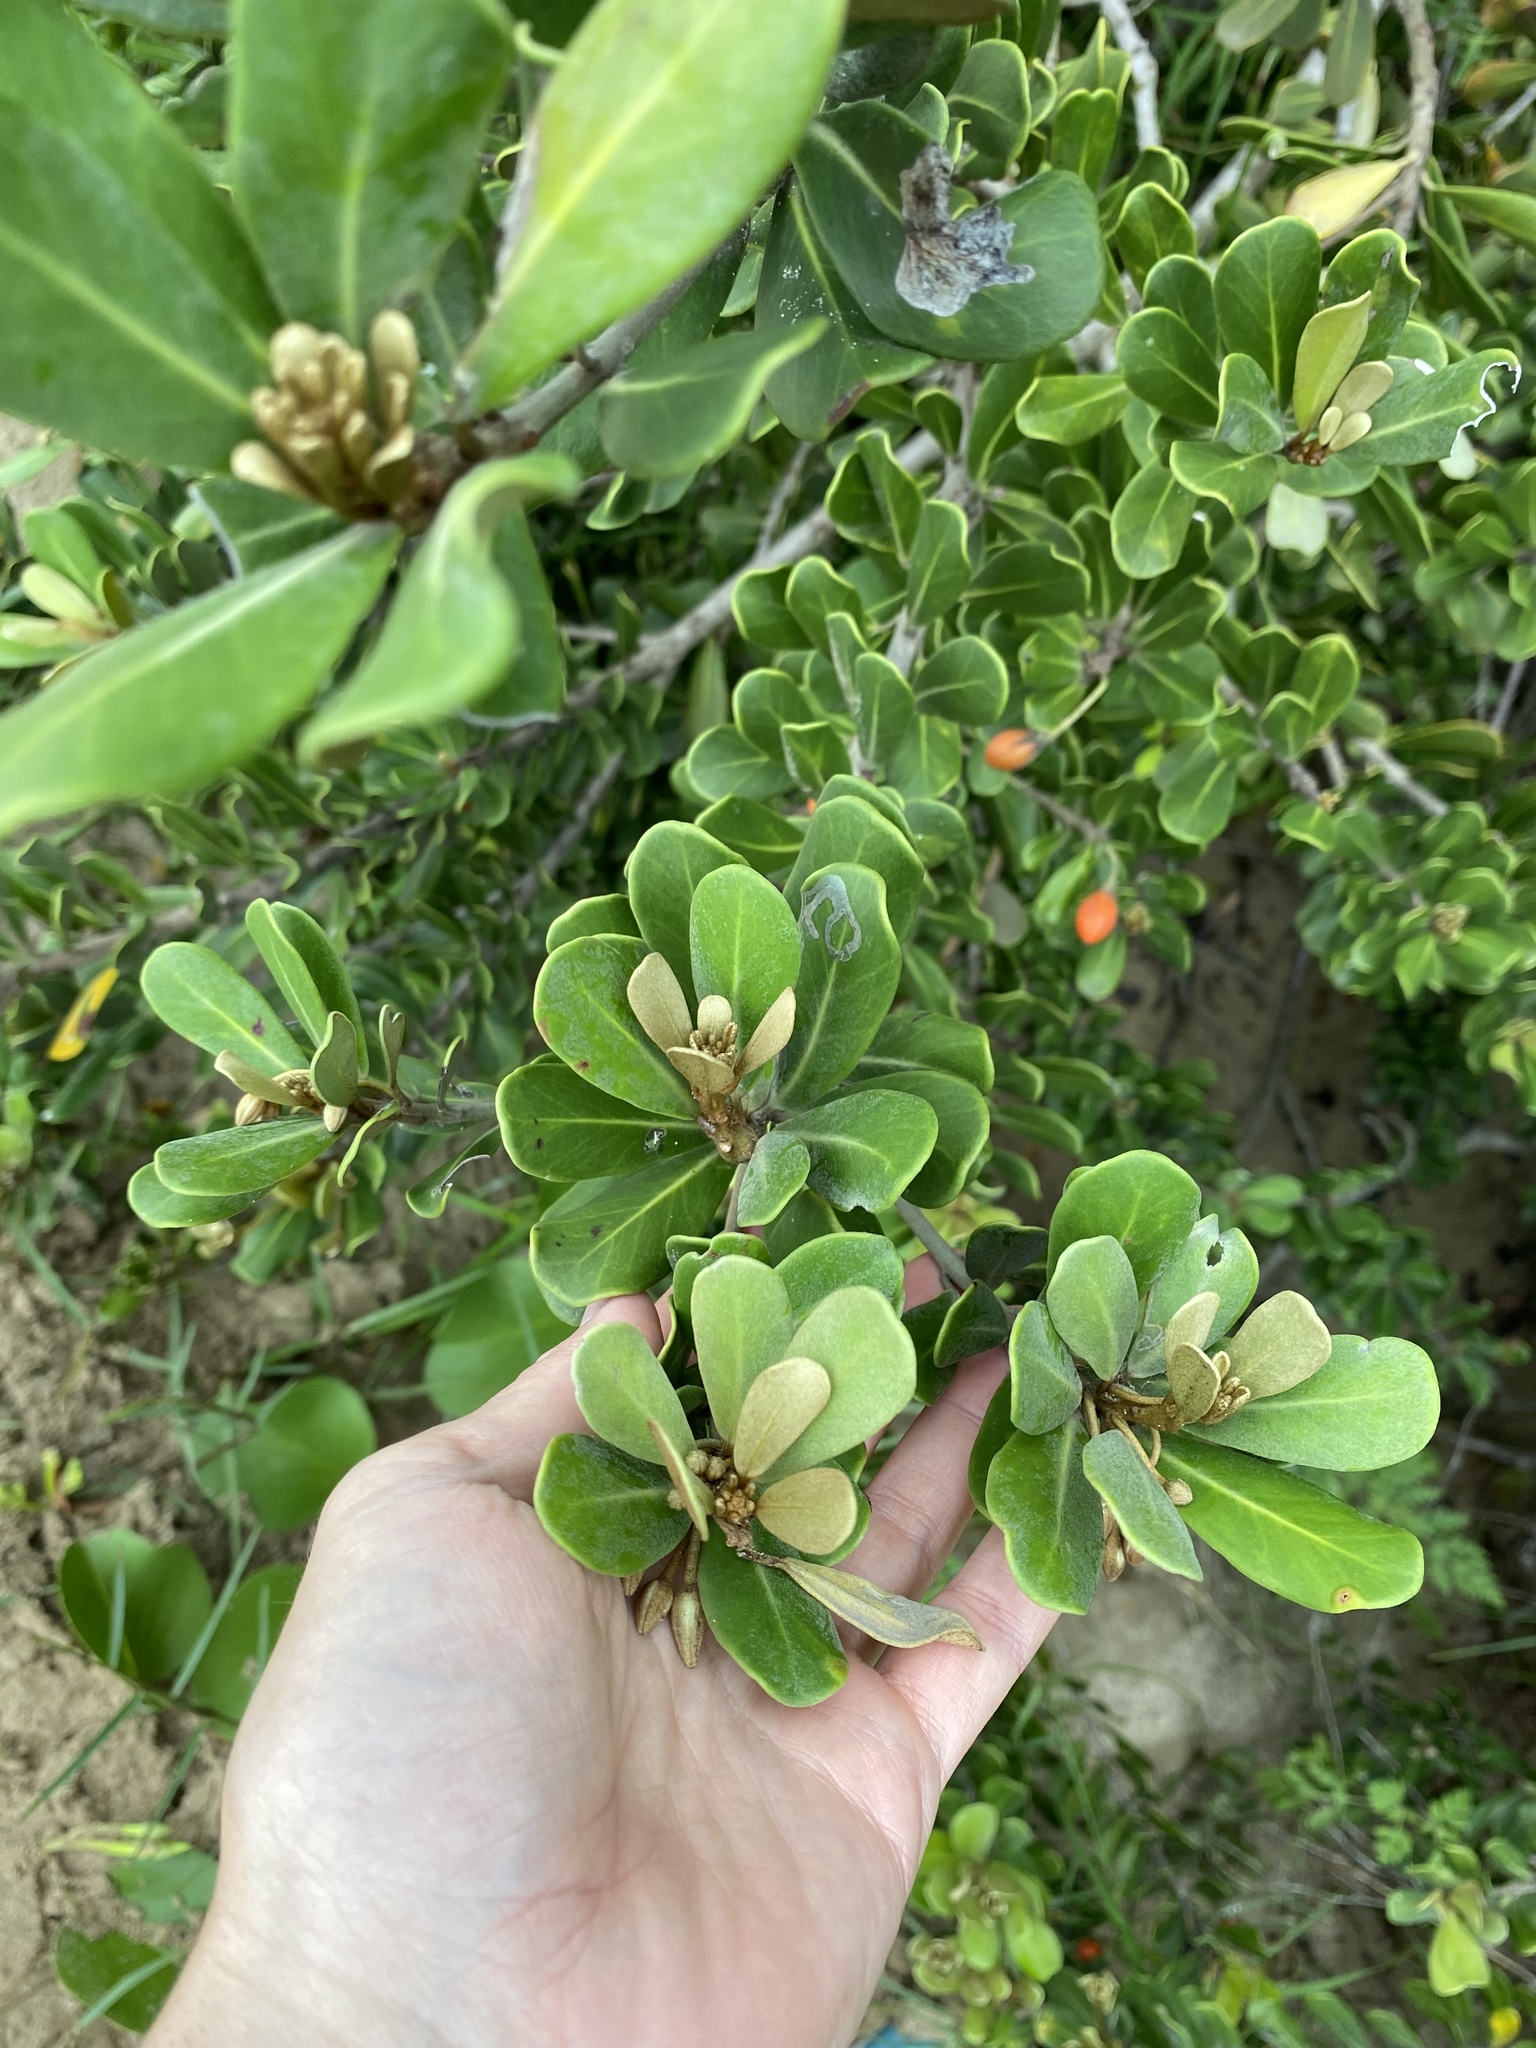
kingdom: Plantae
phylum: Tracheophyta
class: Magnoliopsida
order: Ericales
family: Sapotaceae
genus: Mimusops
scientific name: Mimusops caffra
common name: Coastal red milkwood
